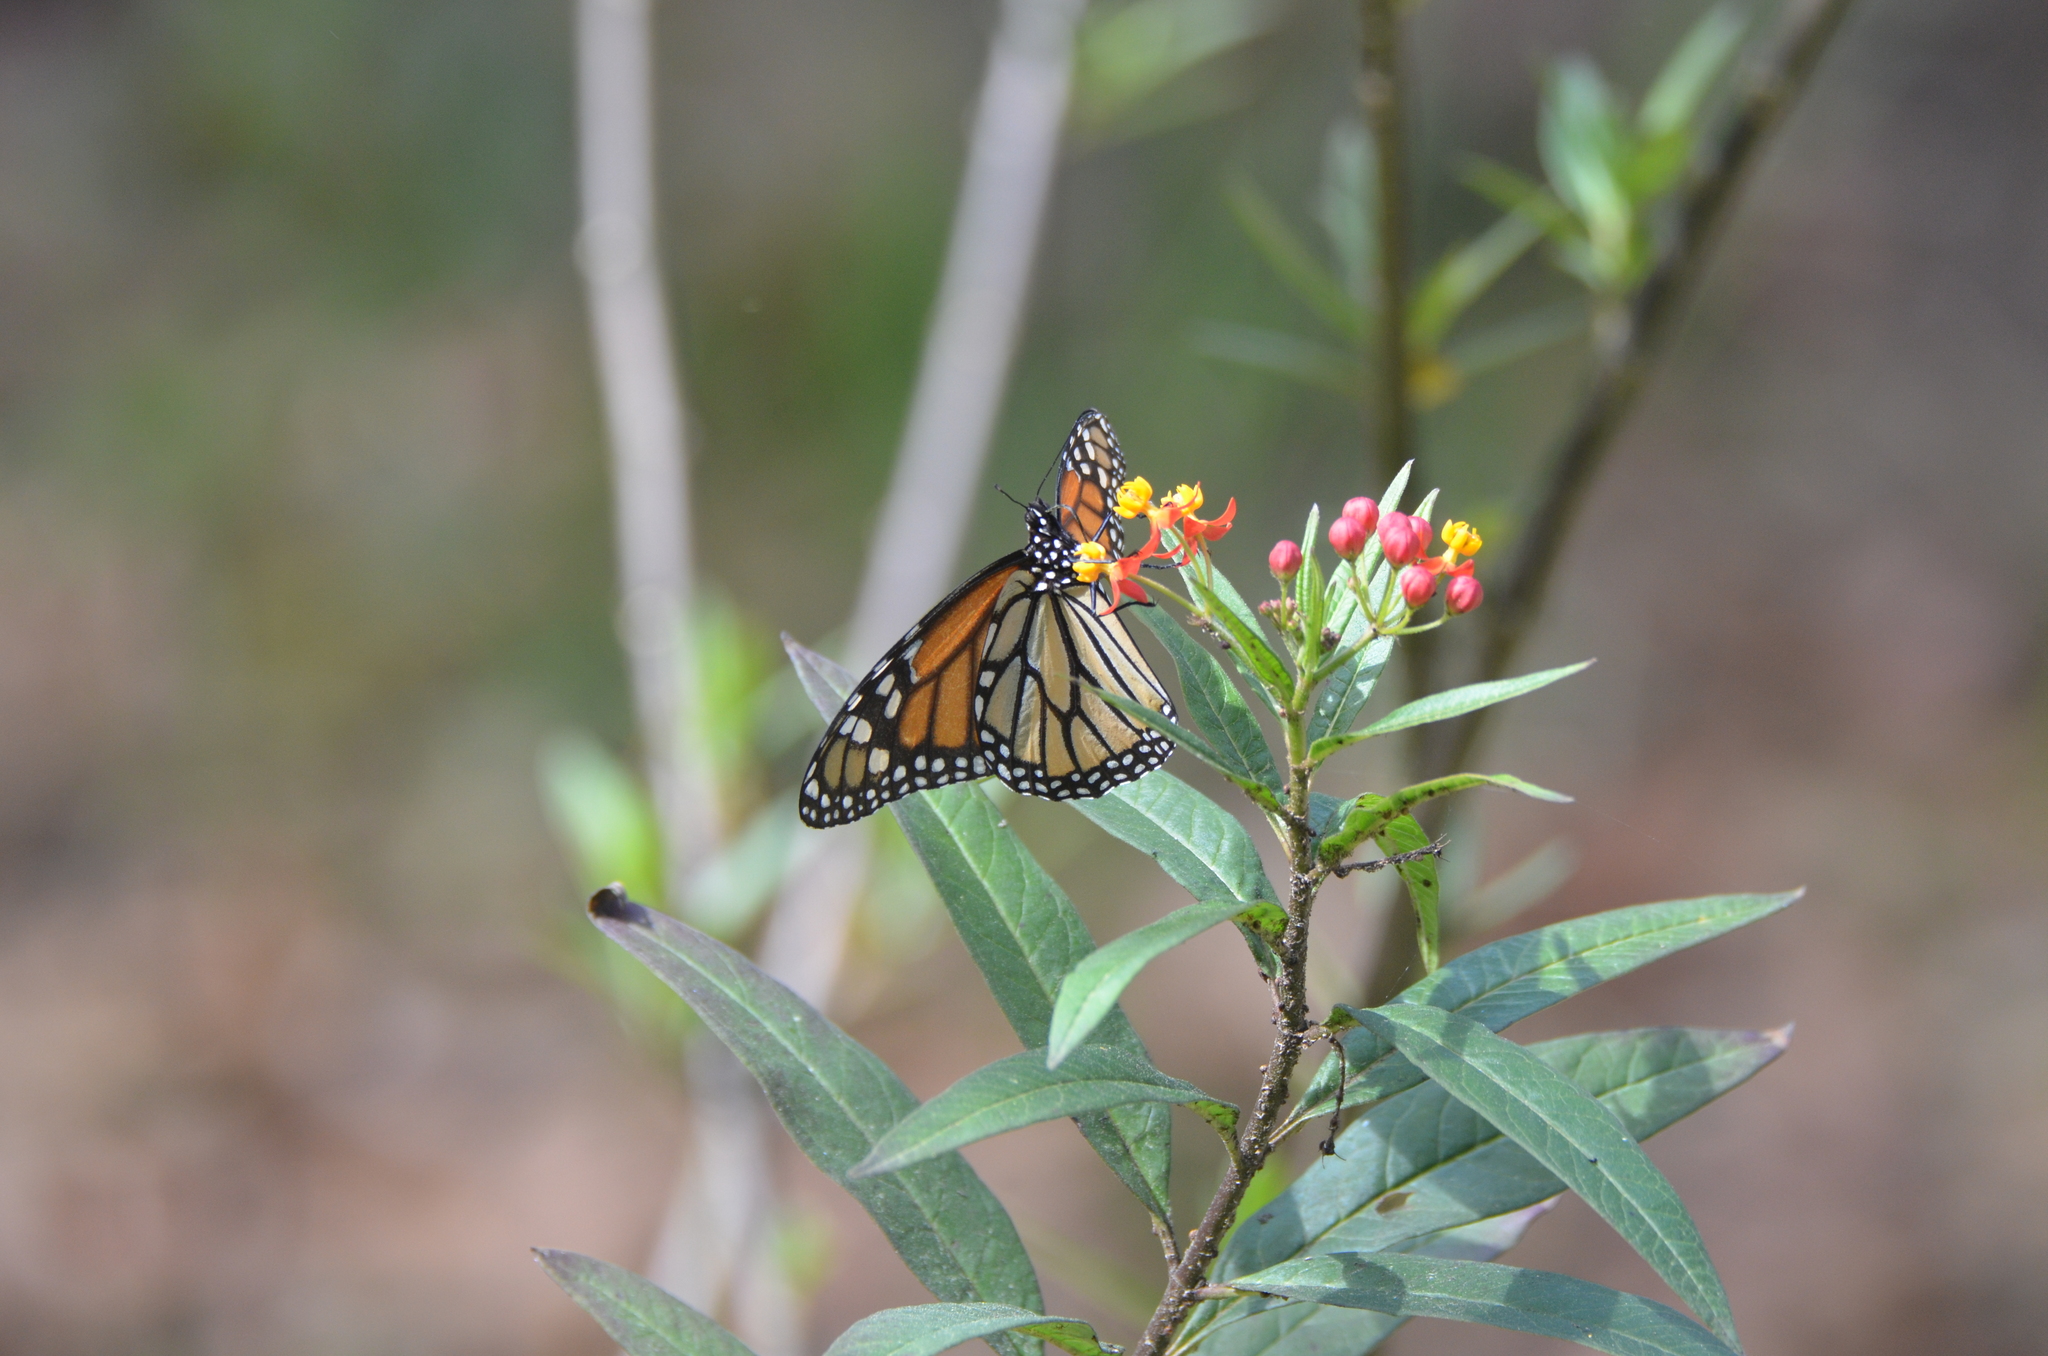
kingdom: Animalia
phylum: Arthropoda
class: Insecta
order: Lepidoptera
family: Nymphalidae
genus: Danaus
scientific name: Danaus plexippus
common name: Monarch
